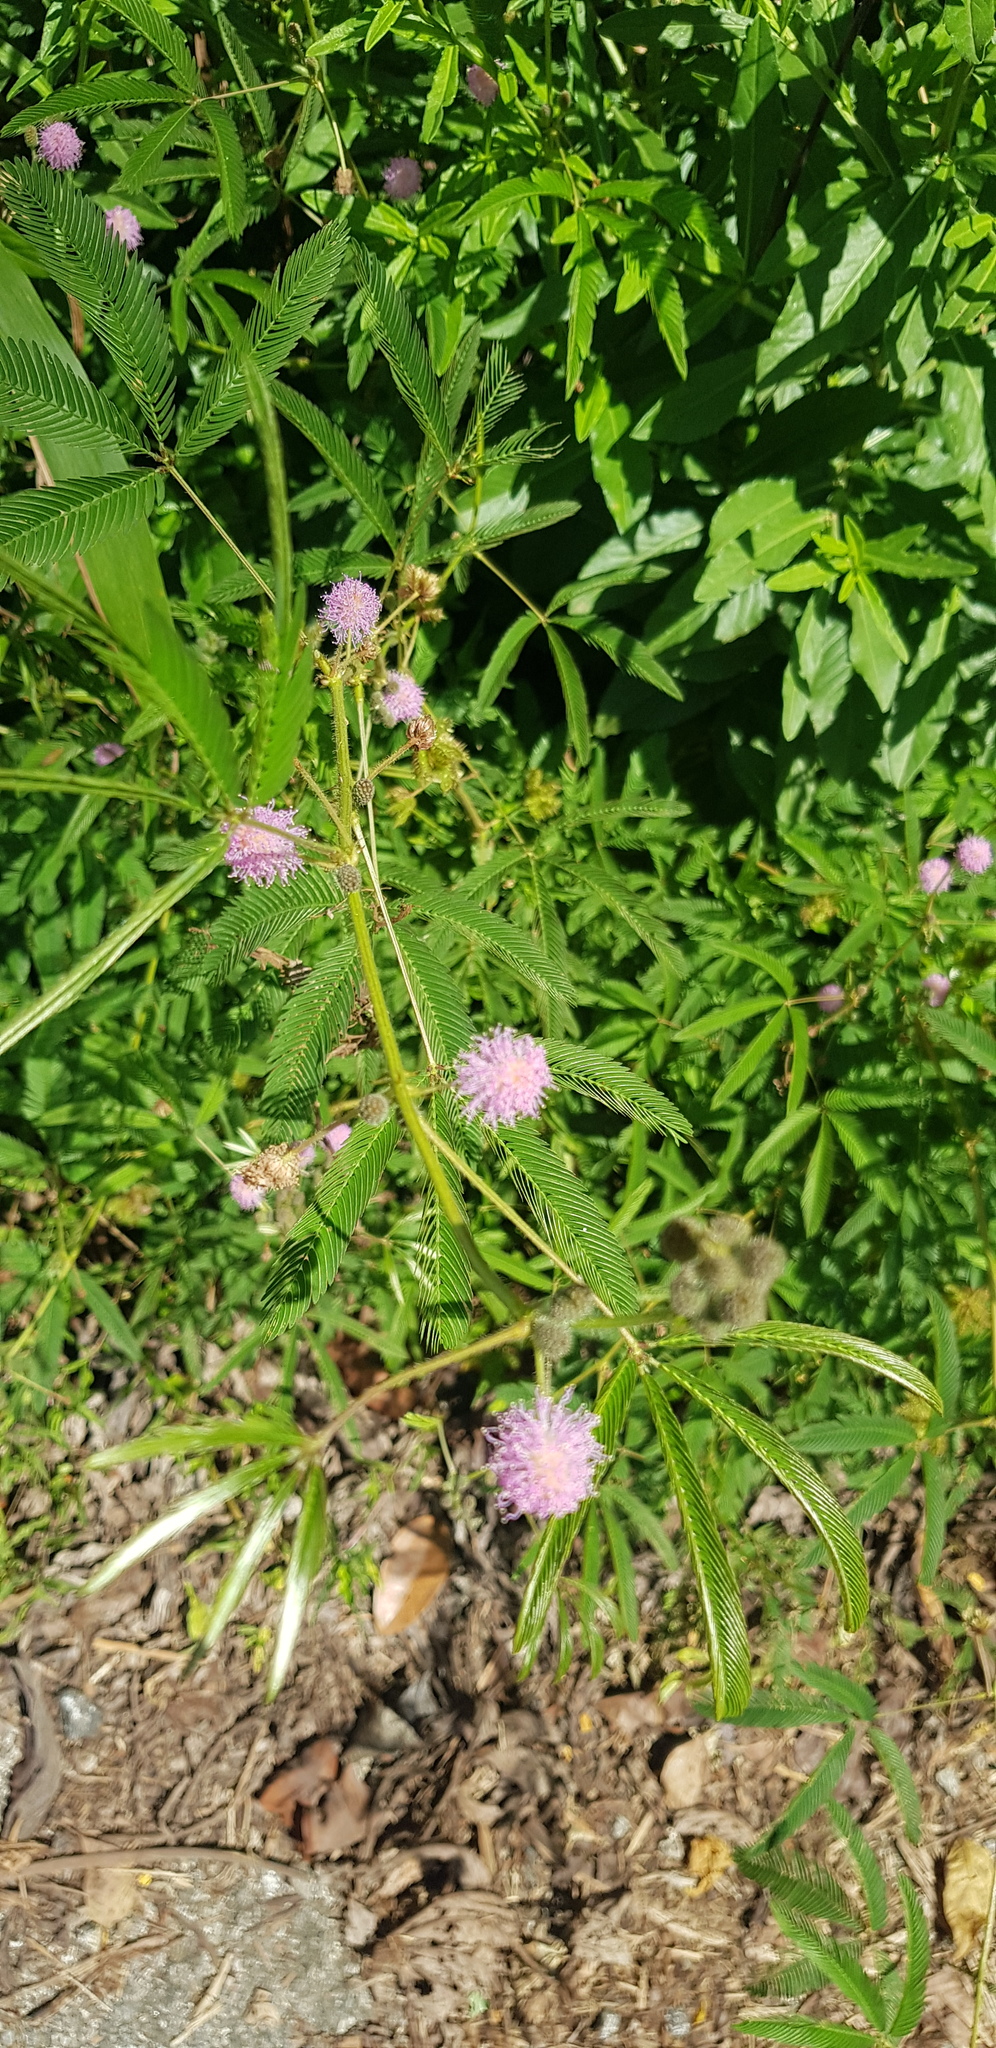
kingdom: Plantae
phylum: Tracheophyta
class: Magnoliopsida
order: Fabales
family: Fabaceae
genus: Mimosa
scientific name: Mimosa pudica
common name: Sensitive plant
